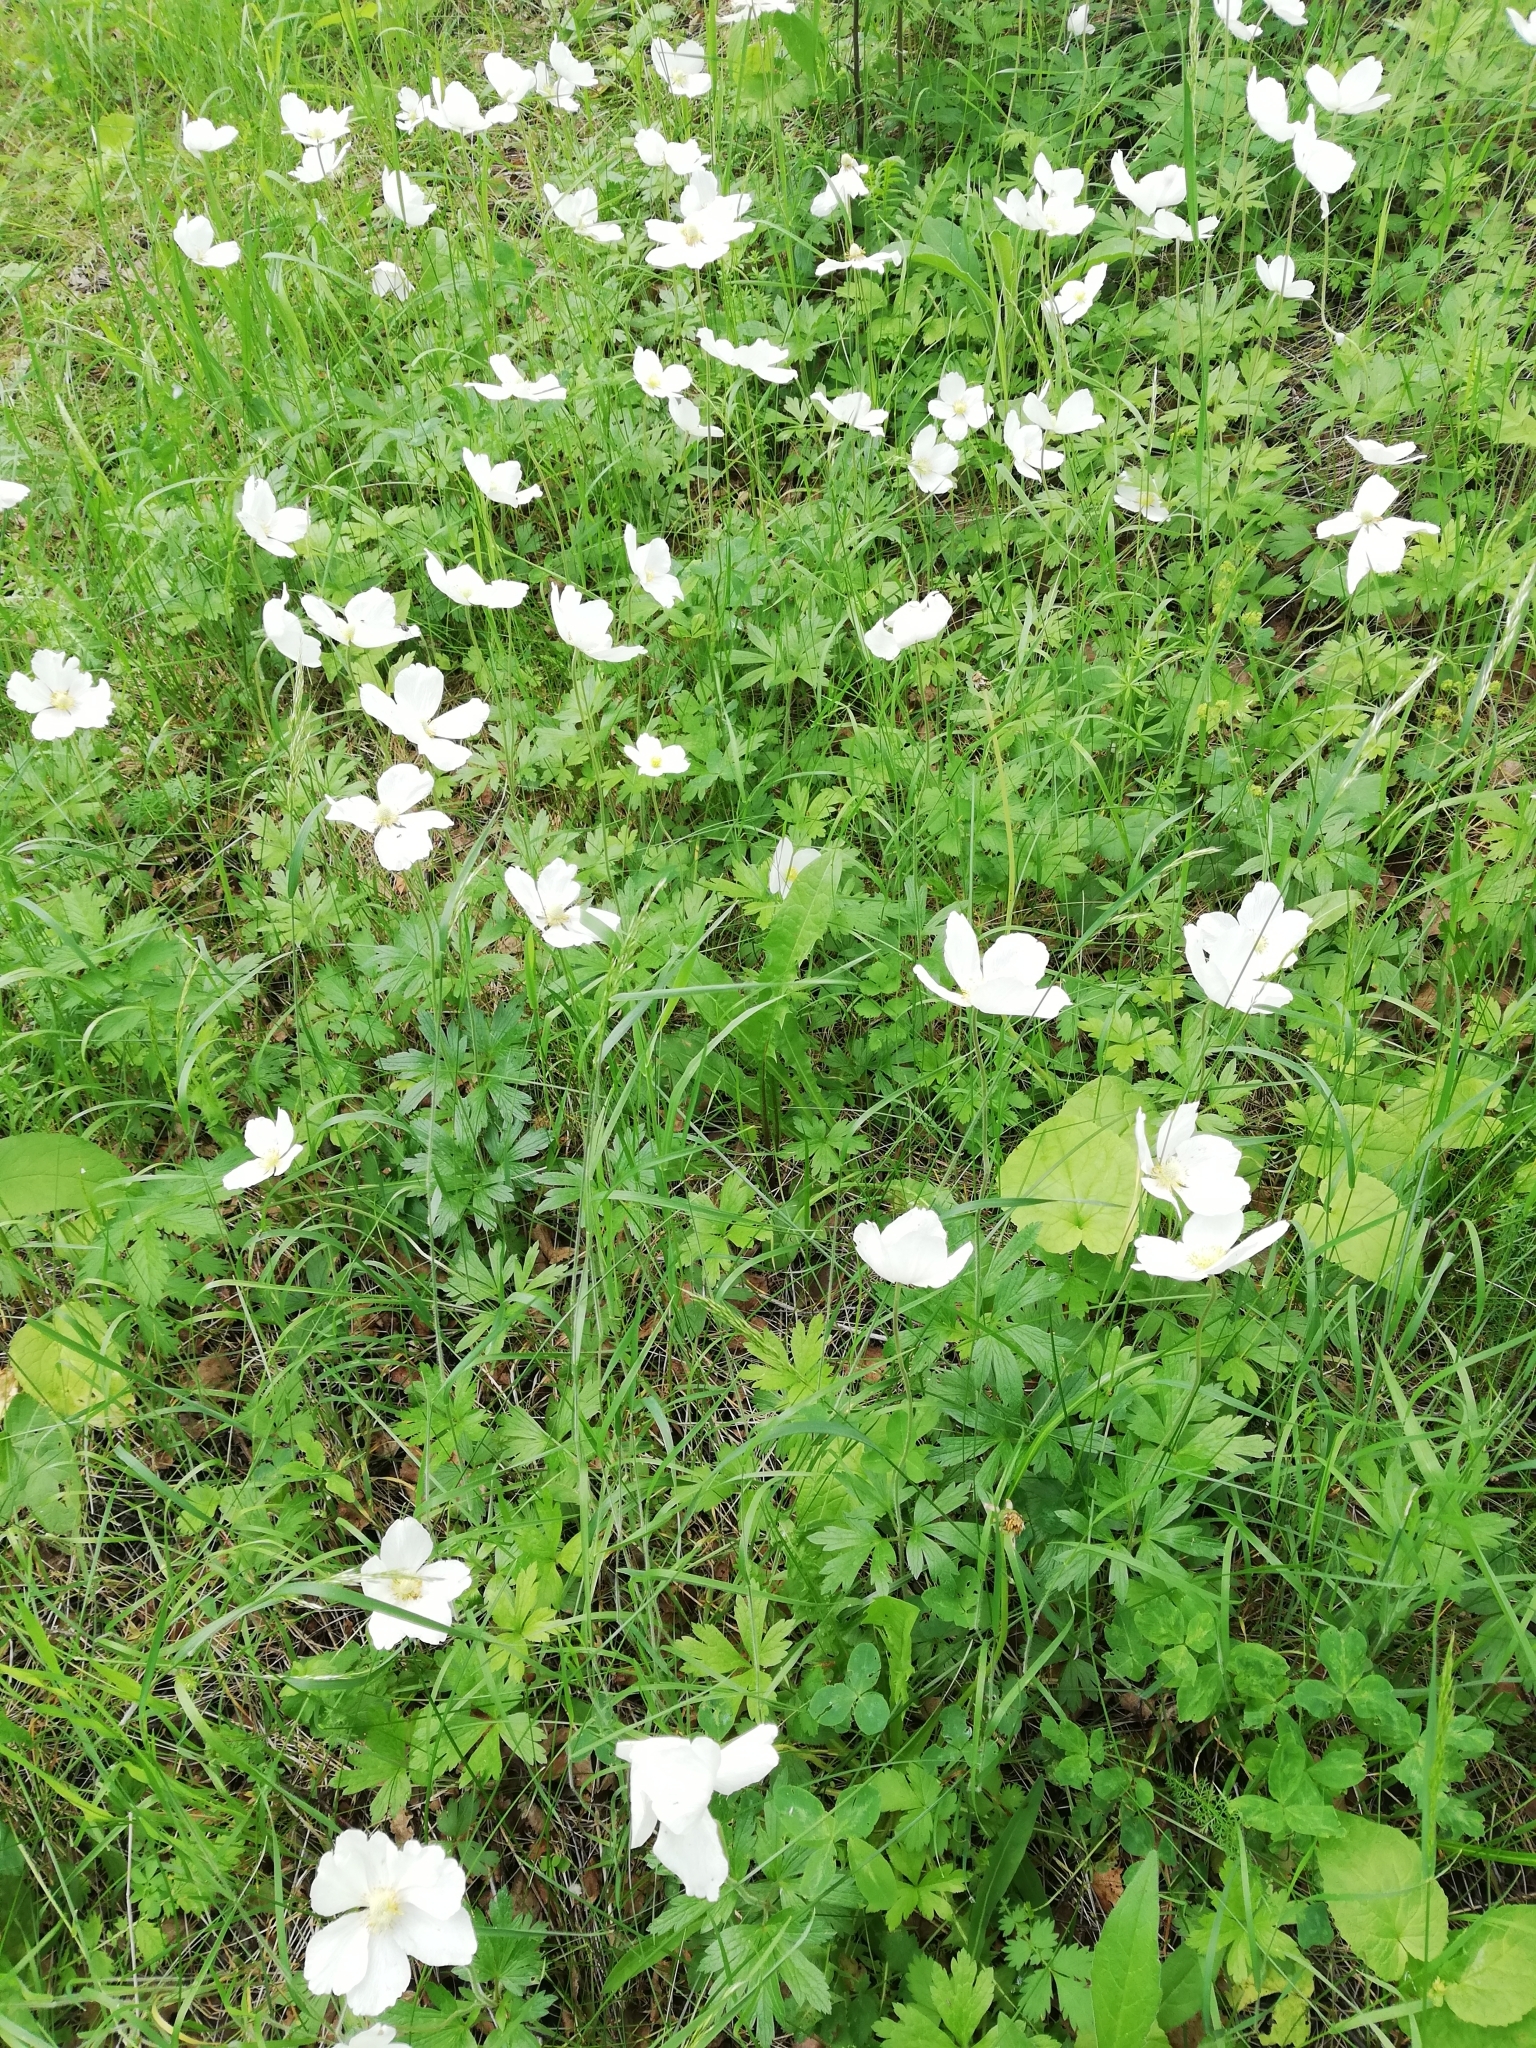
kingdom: Plantae
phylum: Tracheophyta
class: Magnoliopsida
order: Ranunculales
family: Ranunculaceae
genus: Anemone
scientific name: Anemone sylvestris
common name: Snowdrop anemone
